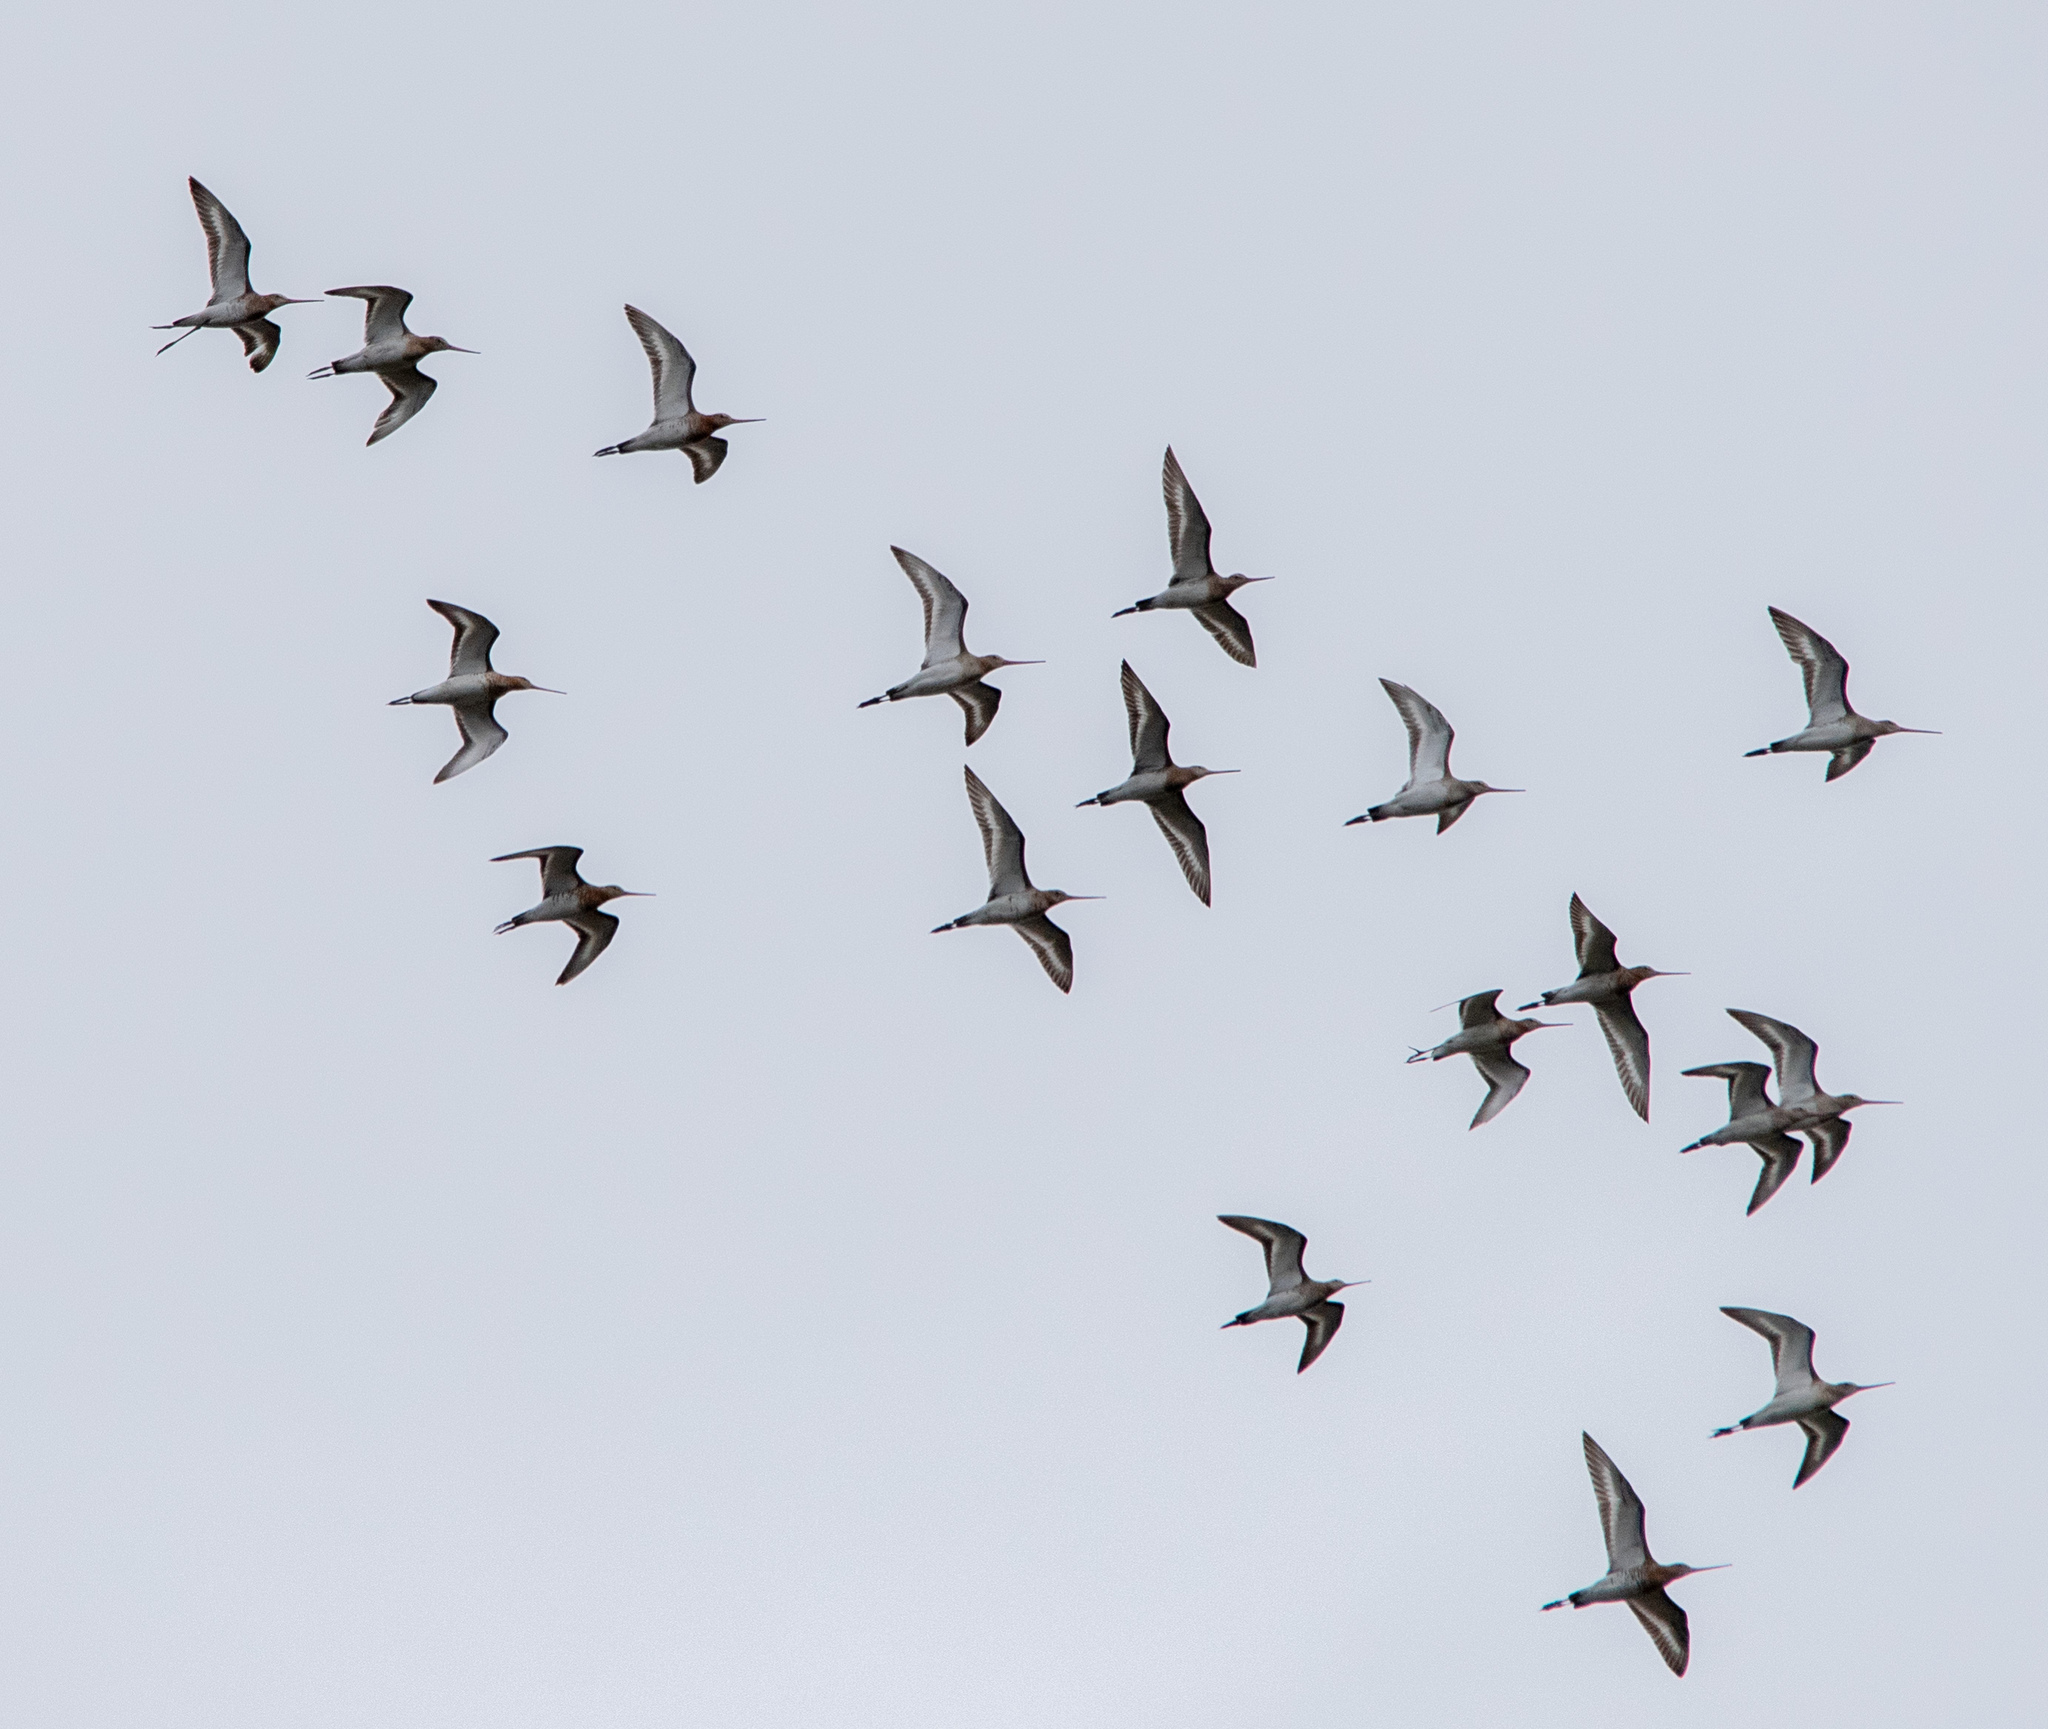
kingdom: Animalia
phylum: Chordata
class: Aves
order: Charadriiformes
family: Scolopacidae
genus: Limosa
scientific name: Limosa limosa
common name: Black-tailed godwit
